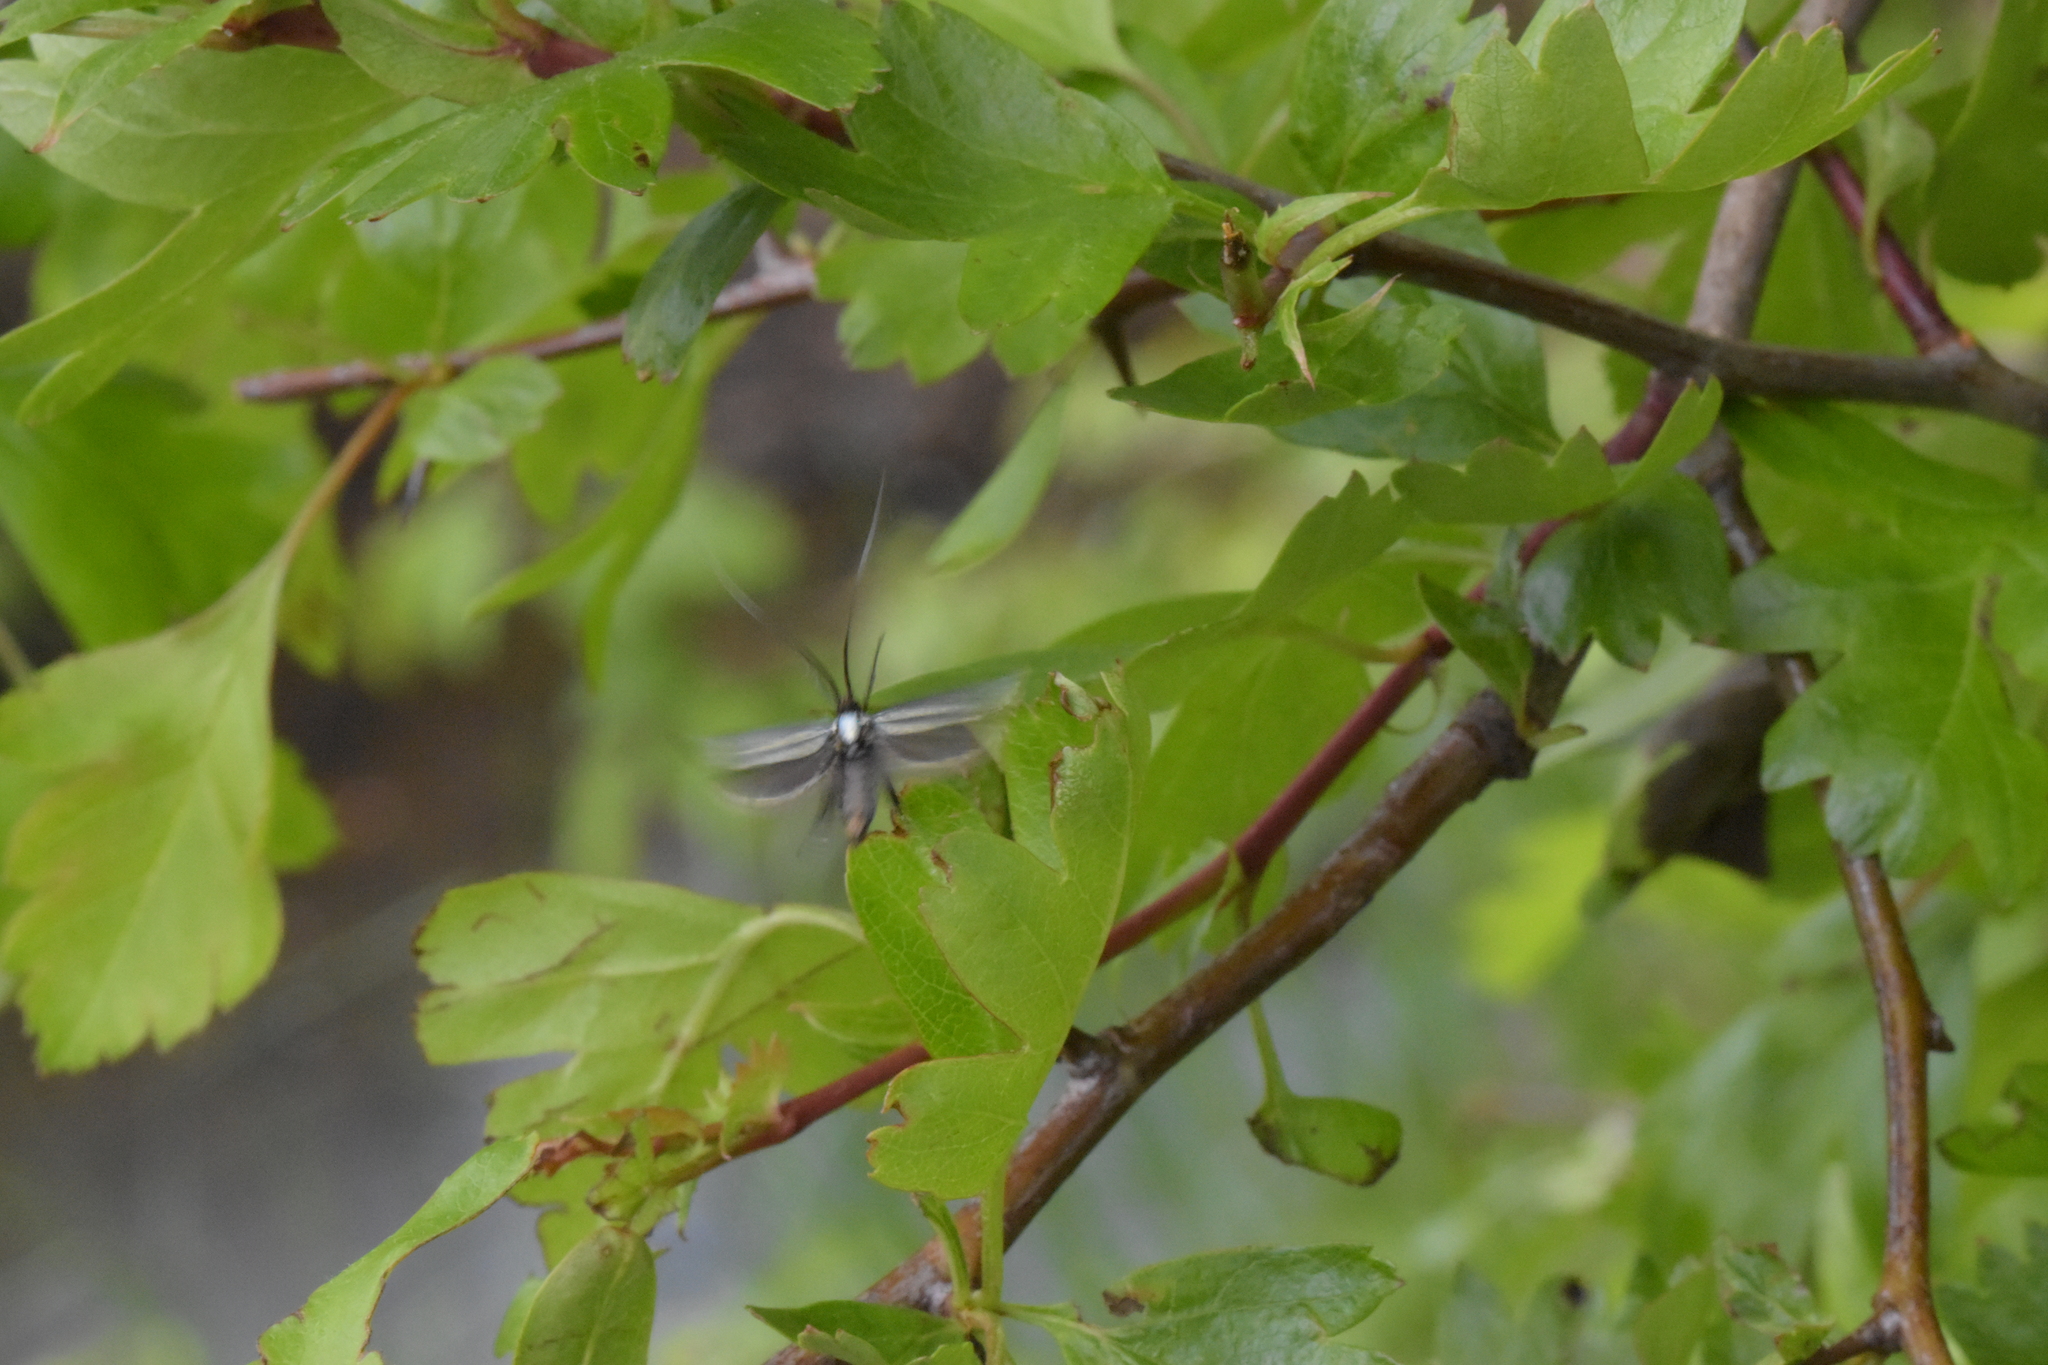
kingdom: Animalia
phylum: Arthropoda
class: Insecta
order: Lepidoptera
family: Adelidae
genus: Adela
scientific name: Adela viridella
